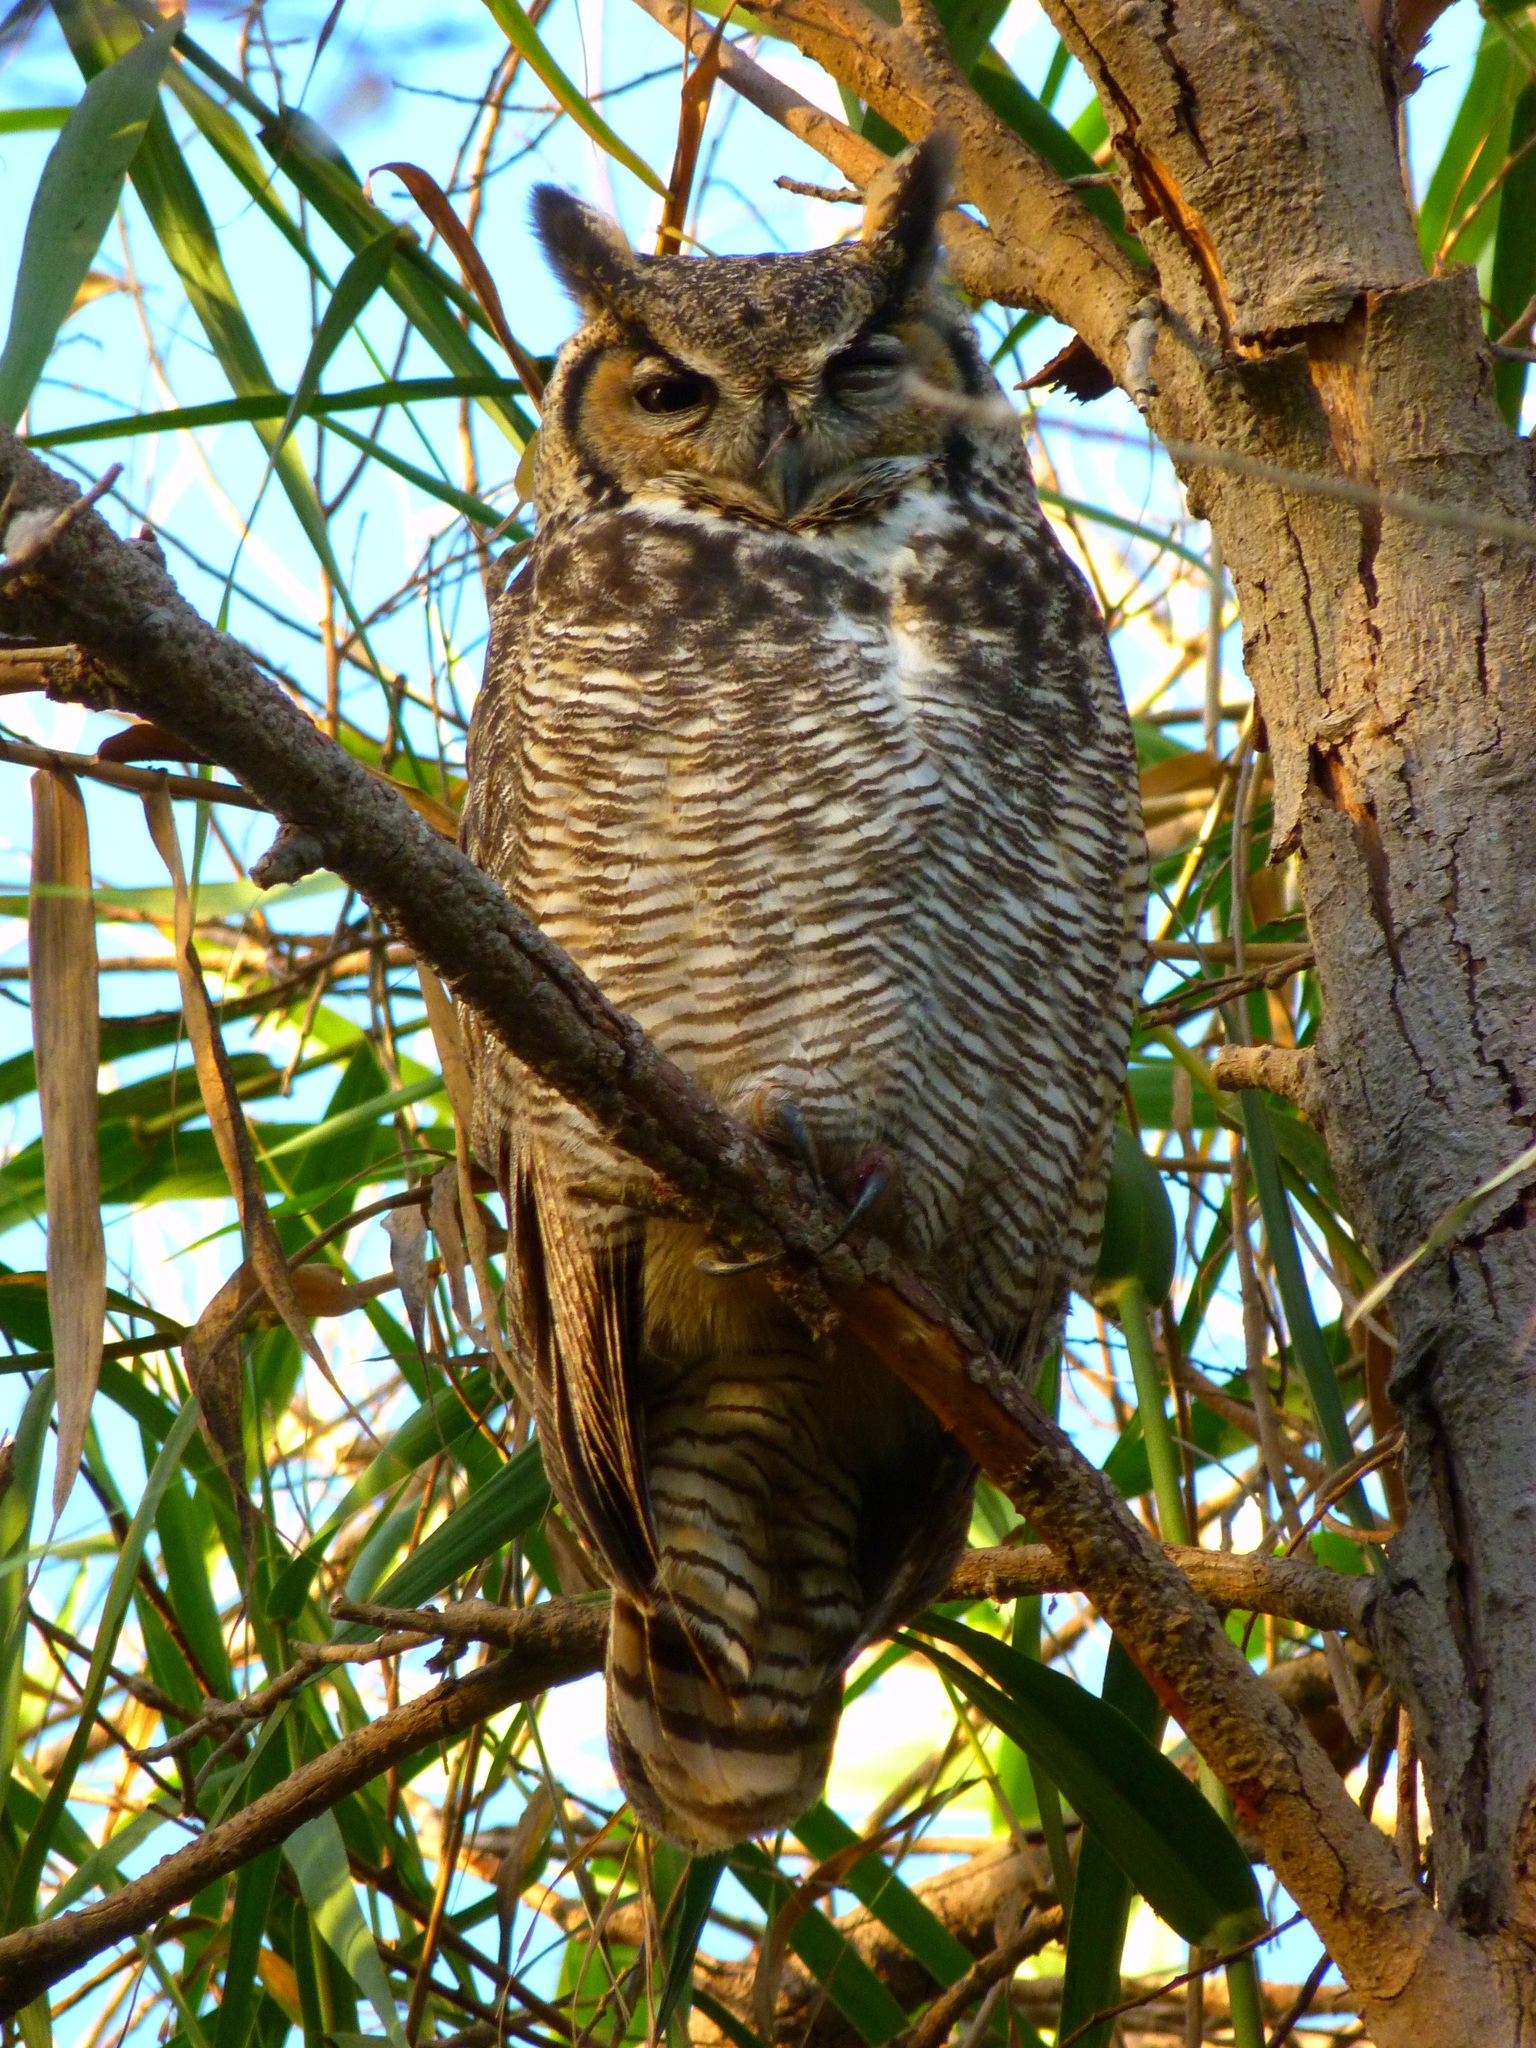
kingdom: Animalia
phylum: Chordata
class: Aves
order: Strigiformes
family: Strigidae
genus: Bubo
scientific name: Bubo virginianus
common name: Great horned owl
